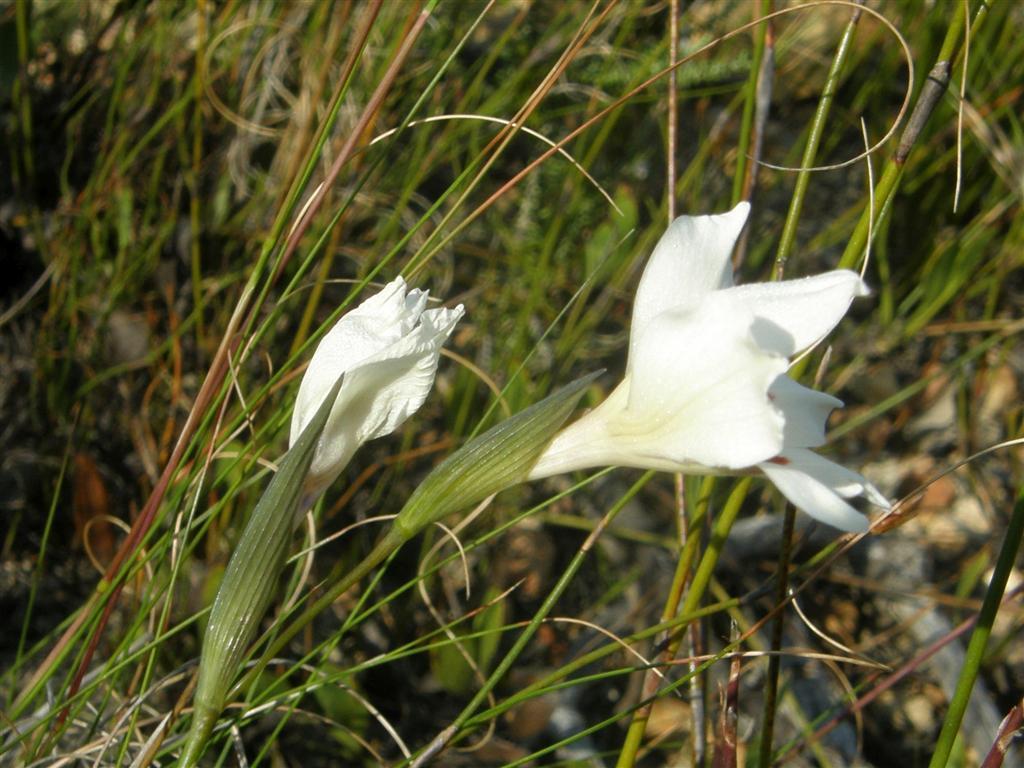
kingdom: Plantae
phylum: Tracheophyta
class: Liliopsida
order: Asparagales
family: Iridaceae
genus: Gladiolus
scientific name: Gladiolus debilis
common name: Painted-lady
